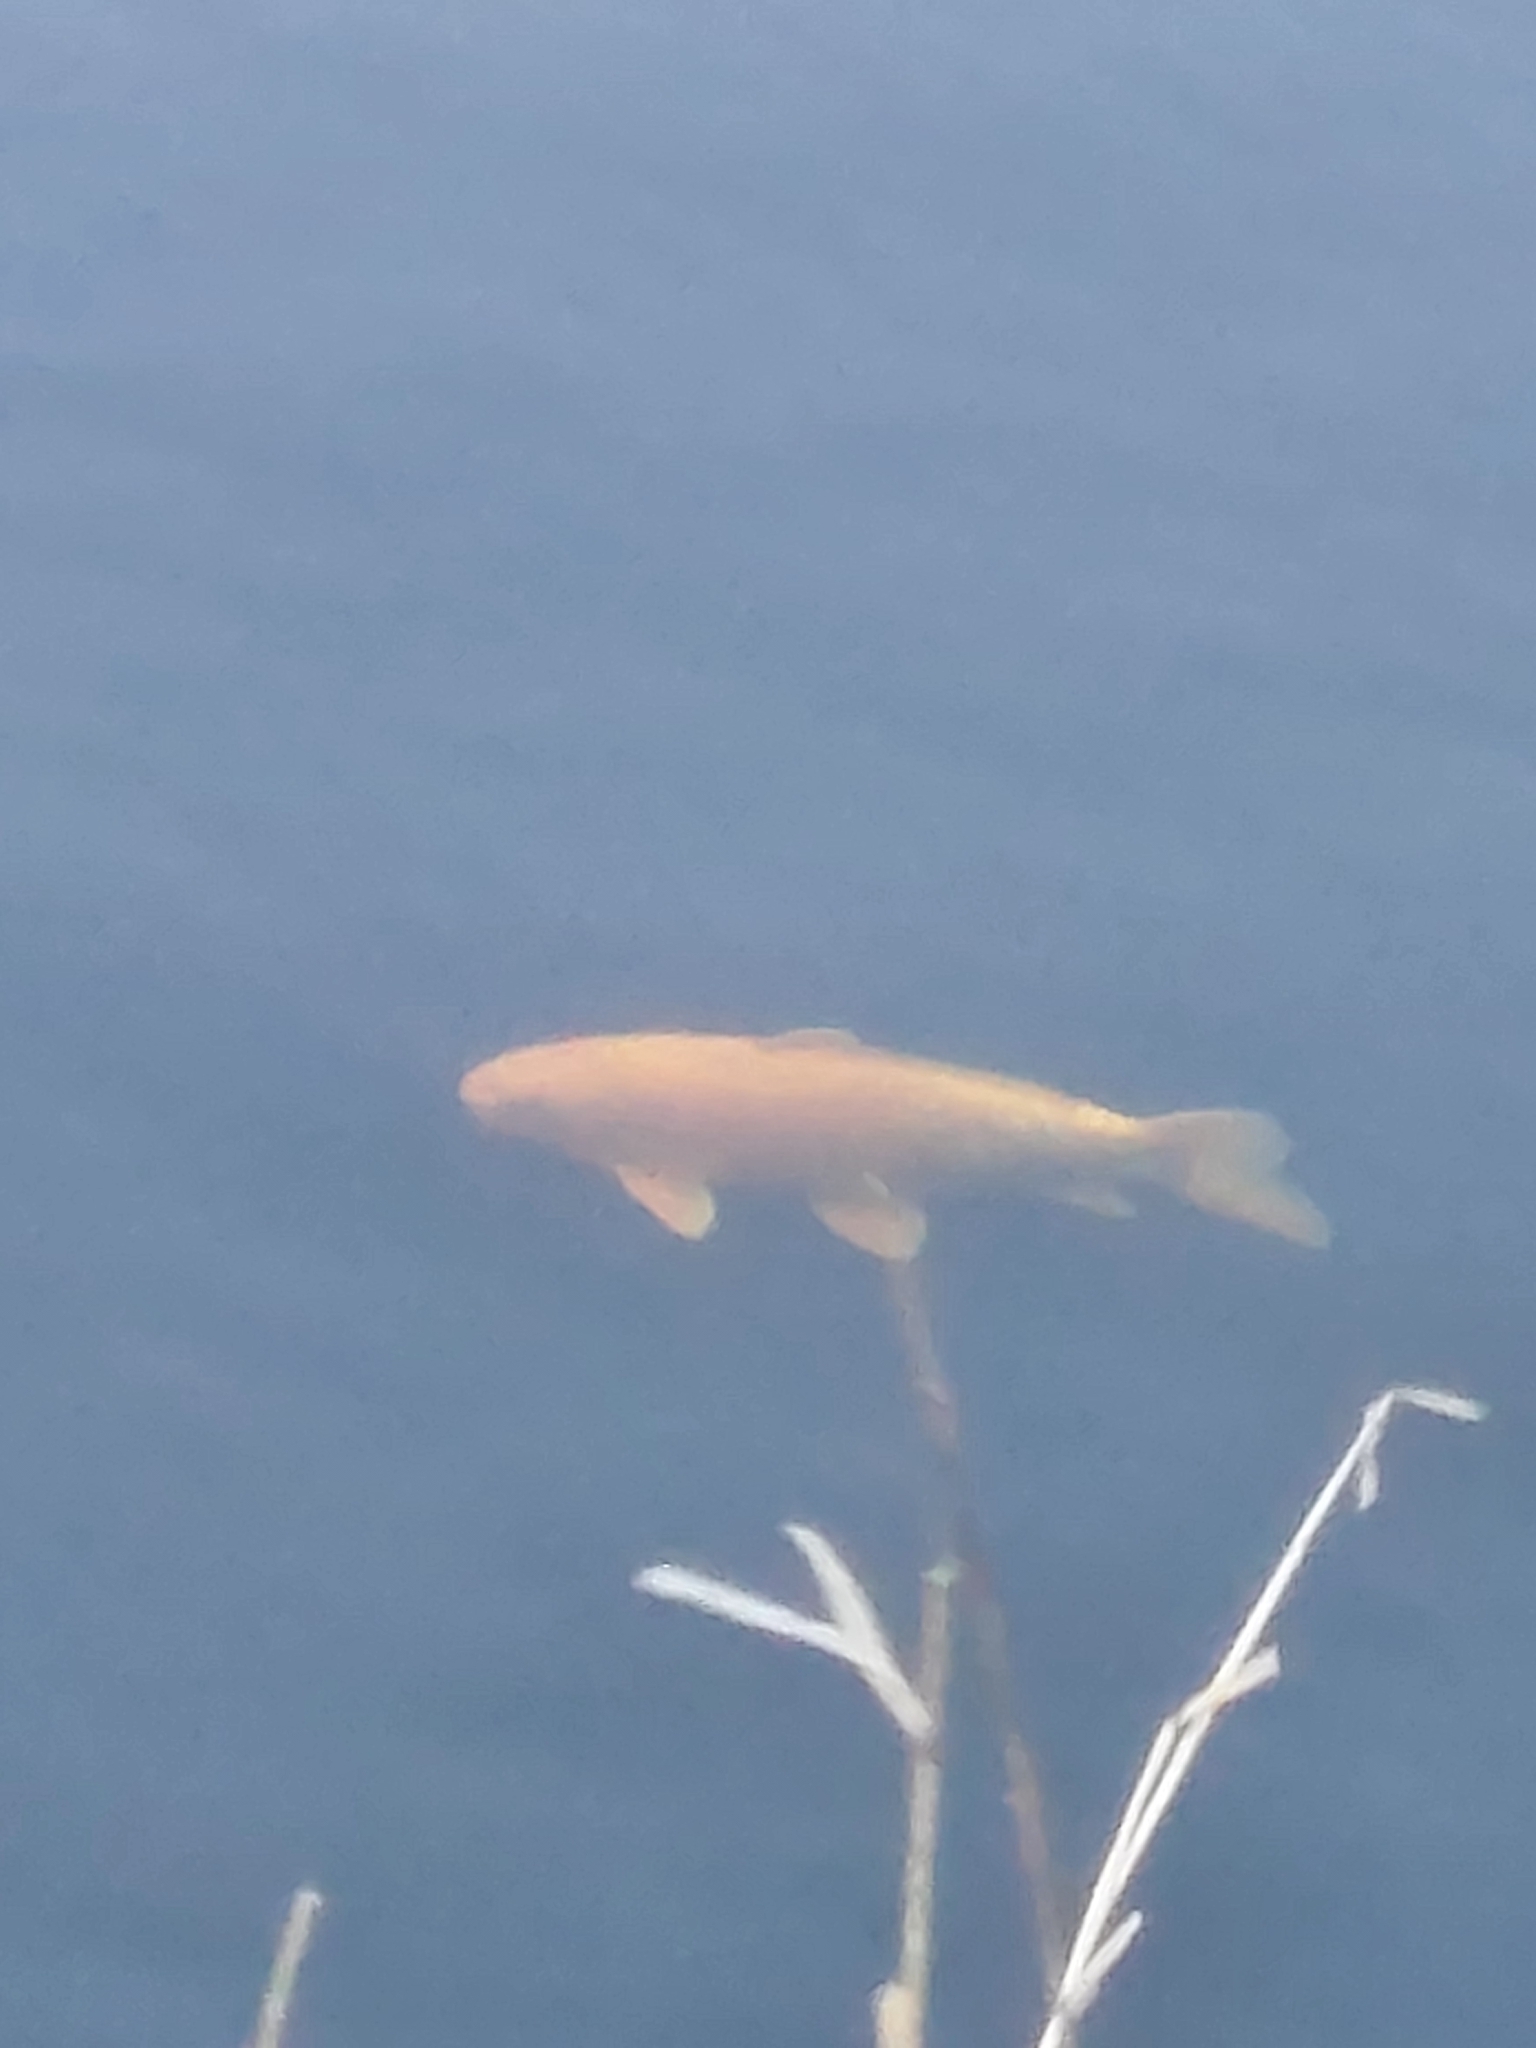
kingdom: Animalia
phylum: Chordata
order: Cypriniformes
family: Cyprinidae
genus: Cyprinus
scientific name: Cyprinus rubrofuscus
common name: Koi
